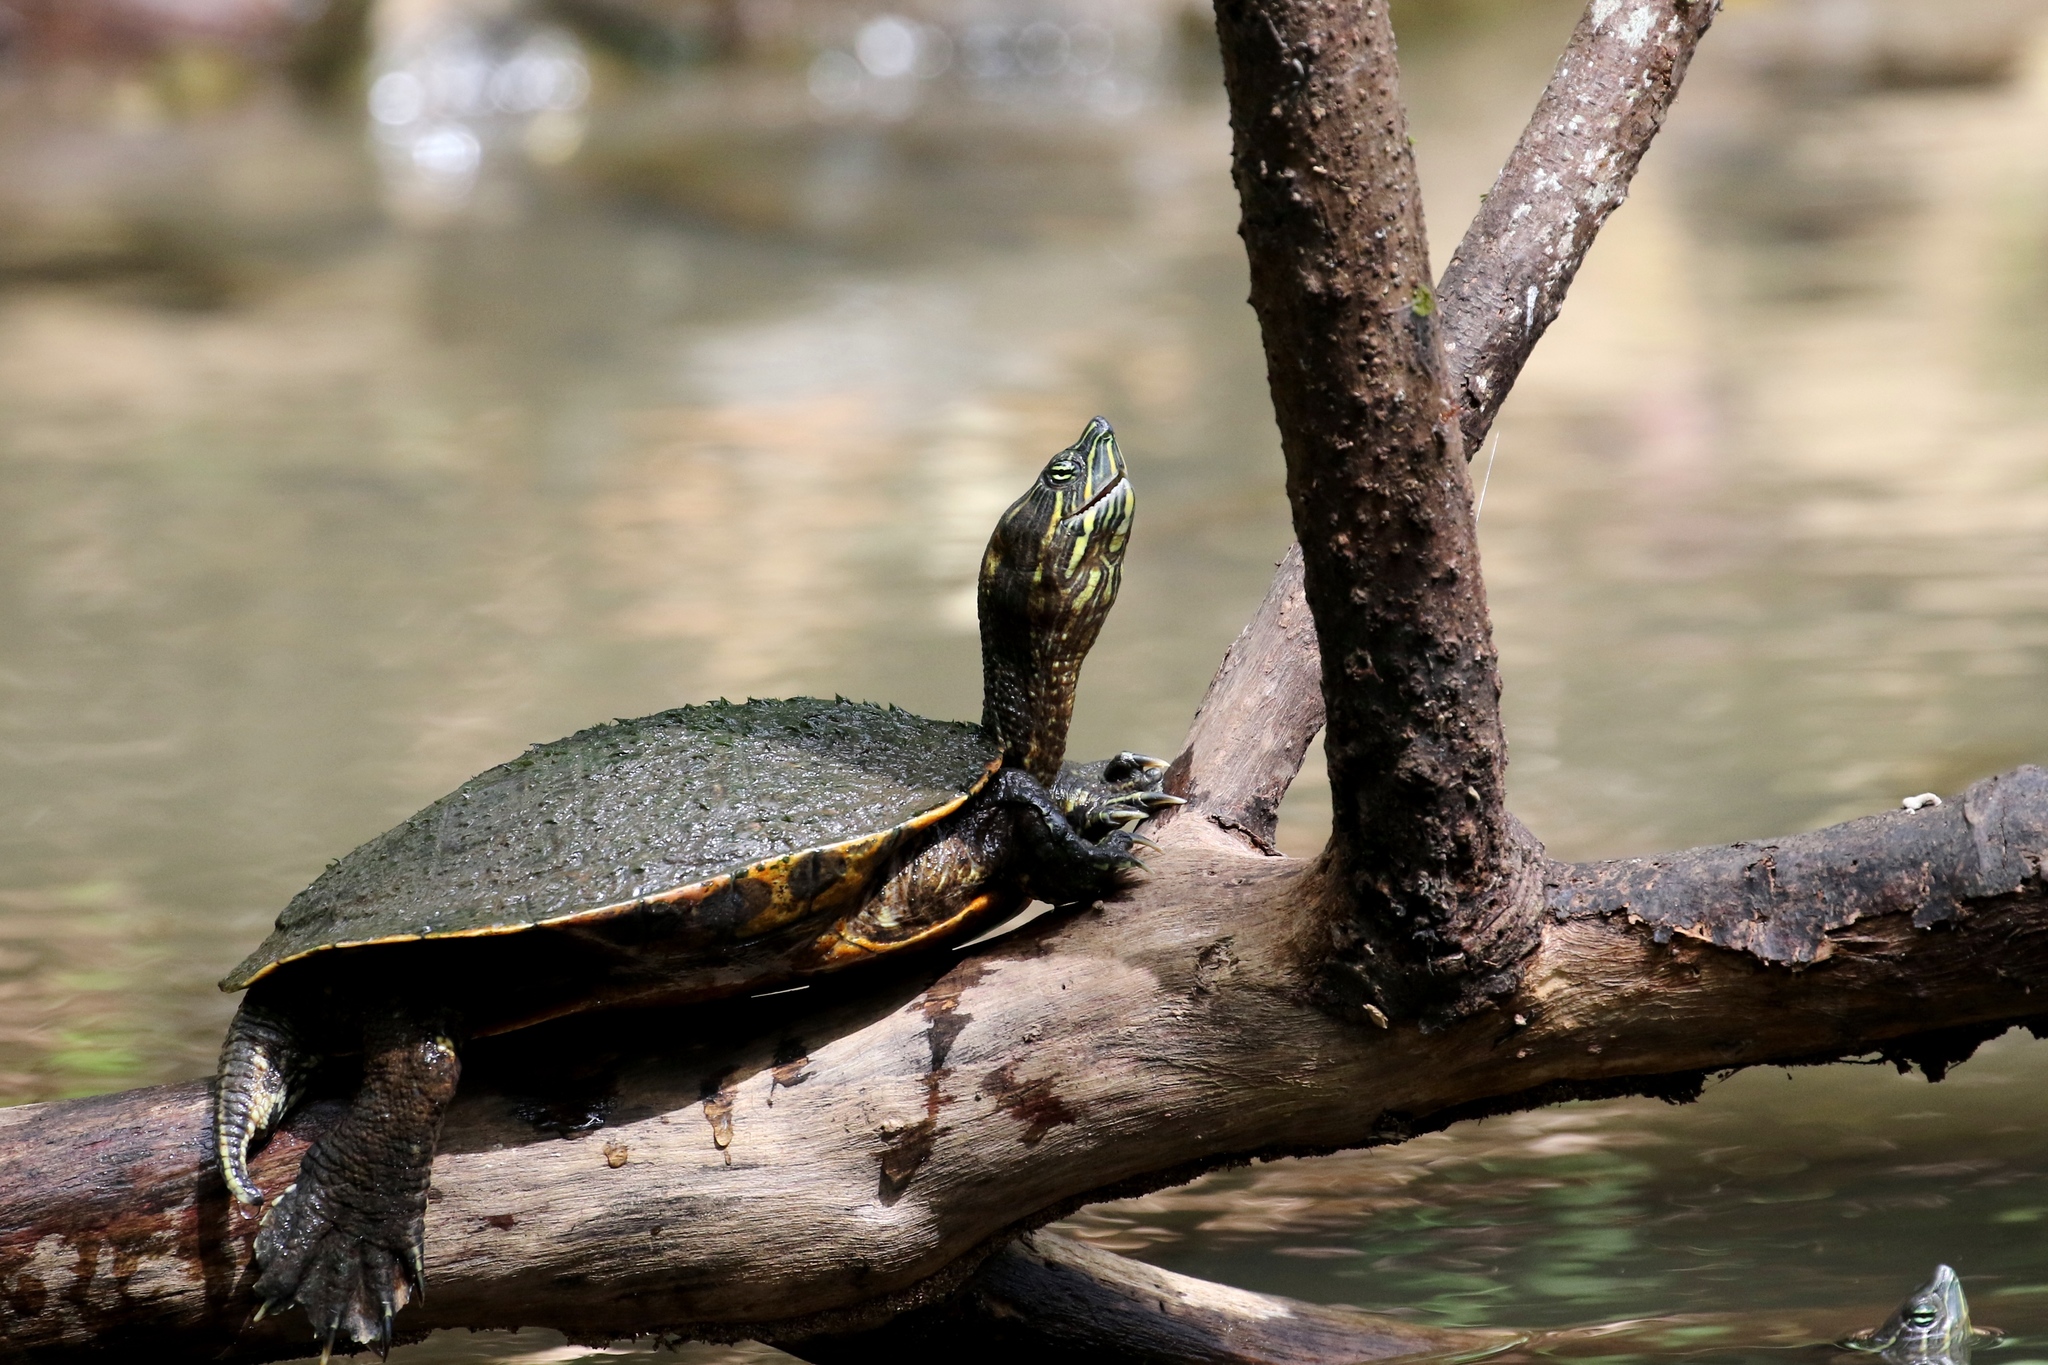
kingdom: Animalia
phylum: Chordata
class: Testudines
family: Emydidae
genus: Trachemys
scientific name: Trachemys grayi
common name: Gray's slider
